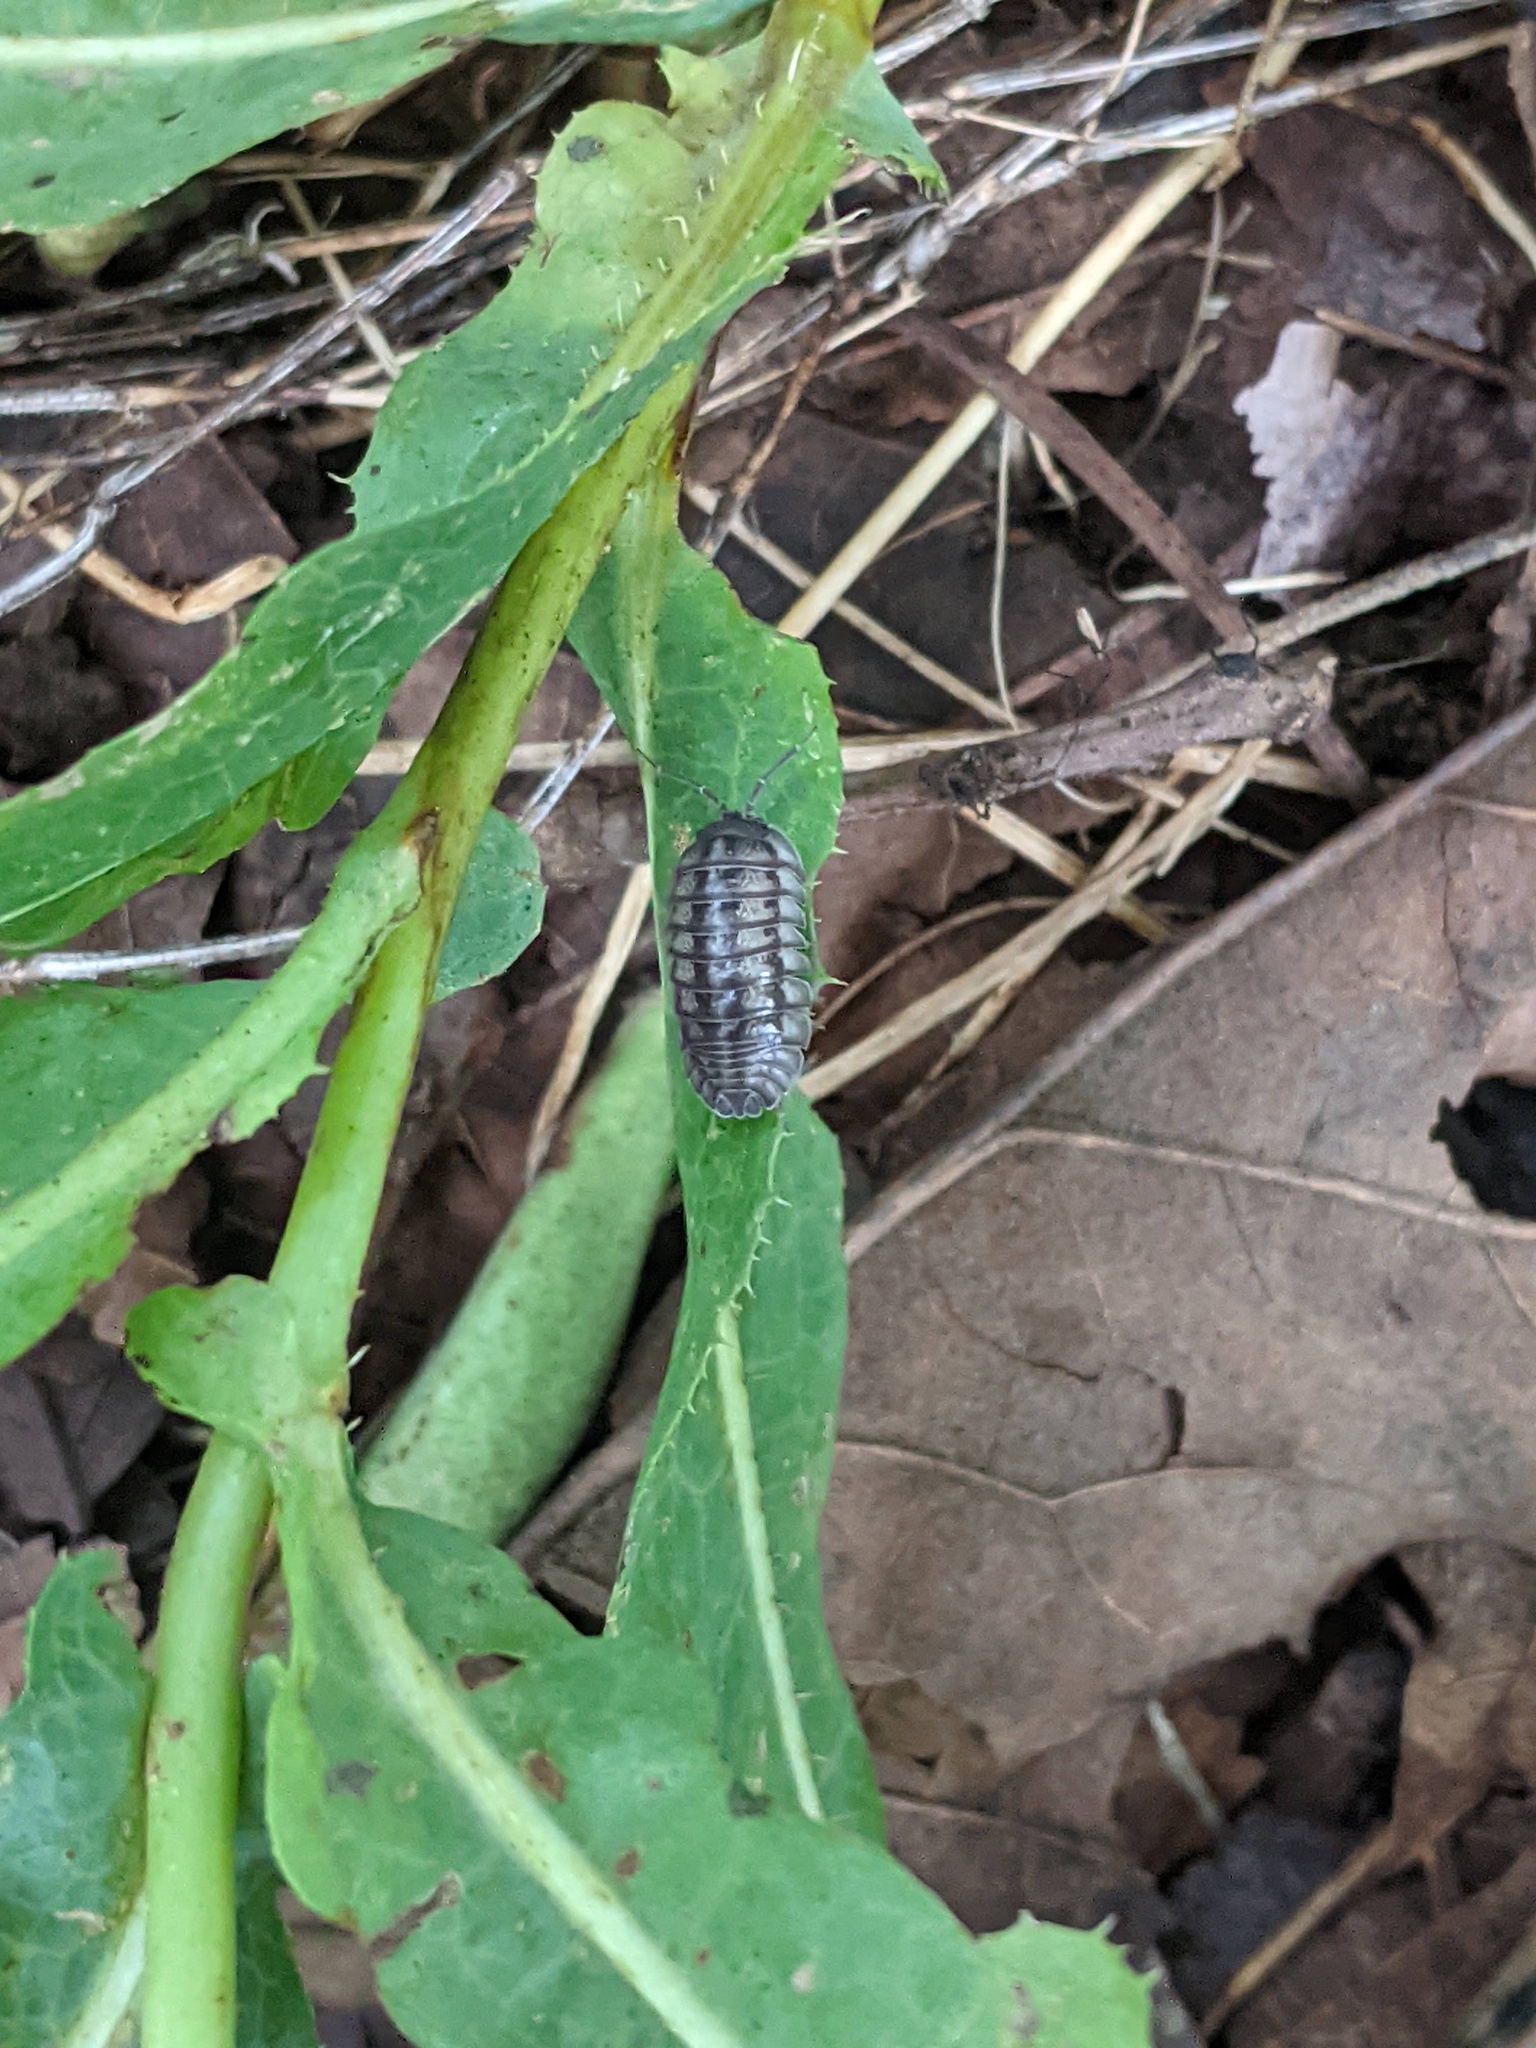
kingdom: Animalia
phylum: Arthropoda
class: Malacostraca
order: Isopoda
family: Armadillidiidae
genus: Armadillidium
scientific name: Armadillidium nasatum
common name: Isopod
